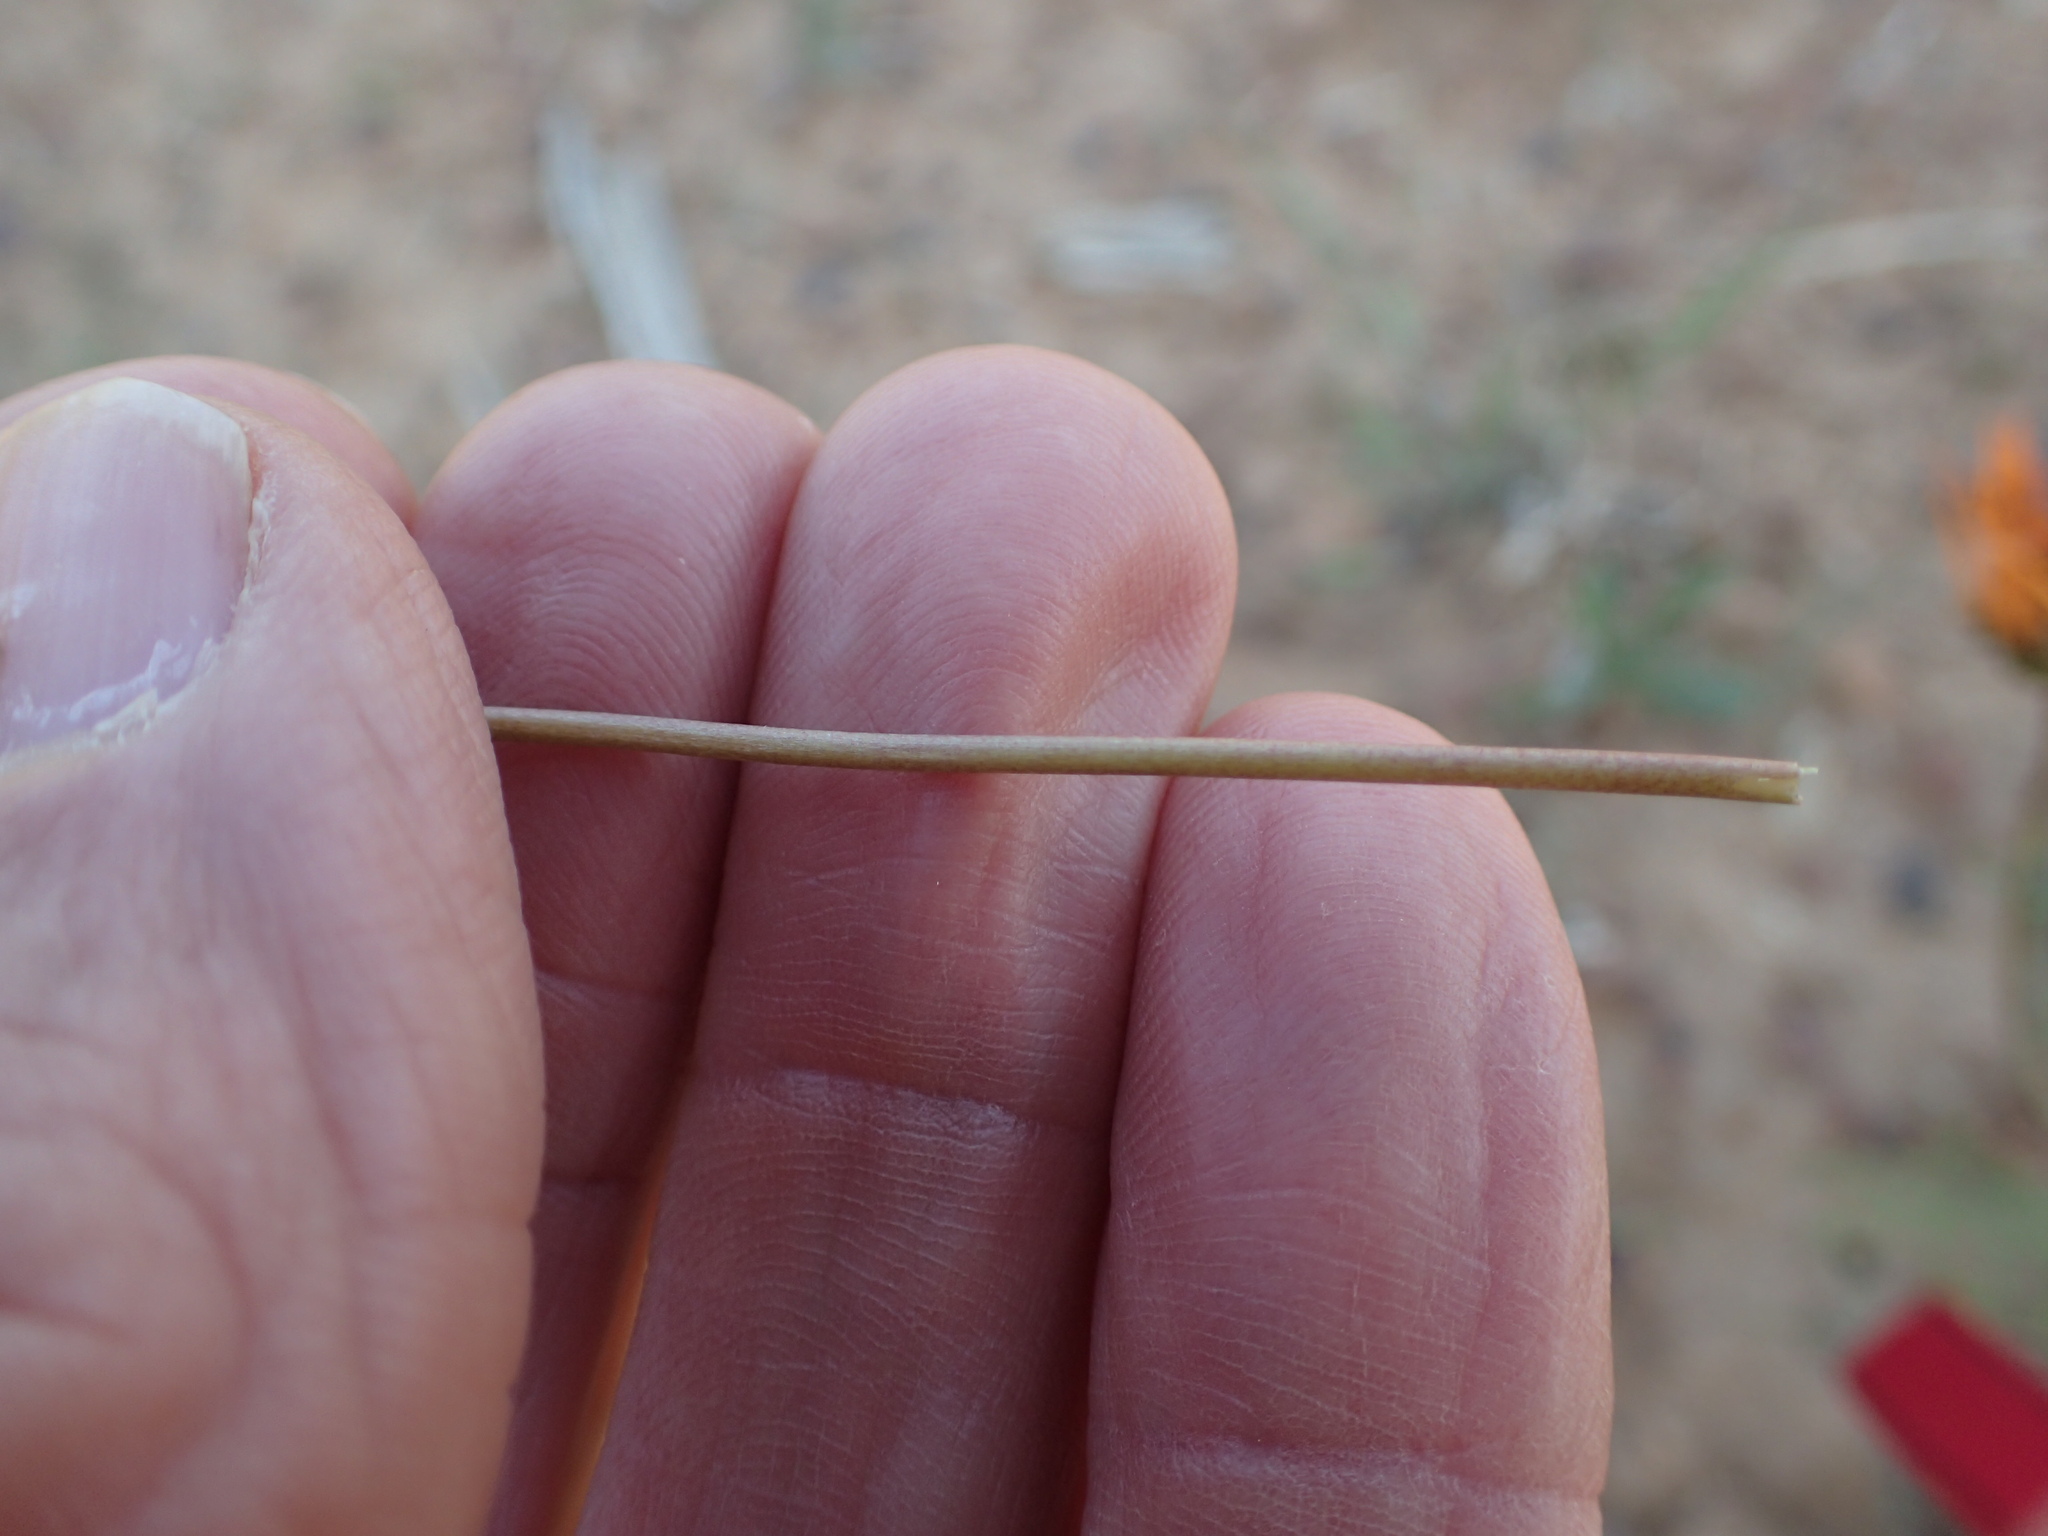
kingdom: Plantae
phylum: Tracheophyta
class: Liliopsida
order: Asparagales
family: Tecophilaeaceae
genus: Cyanella
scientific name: Cyanella alba
